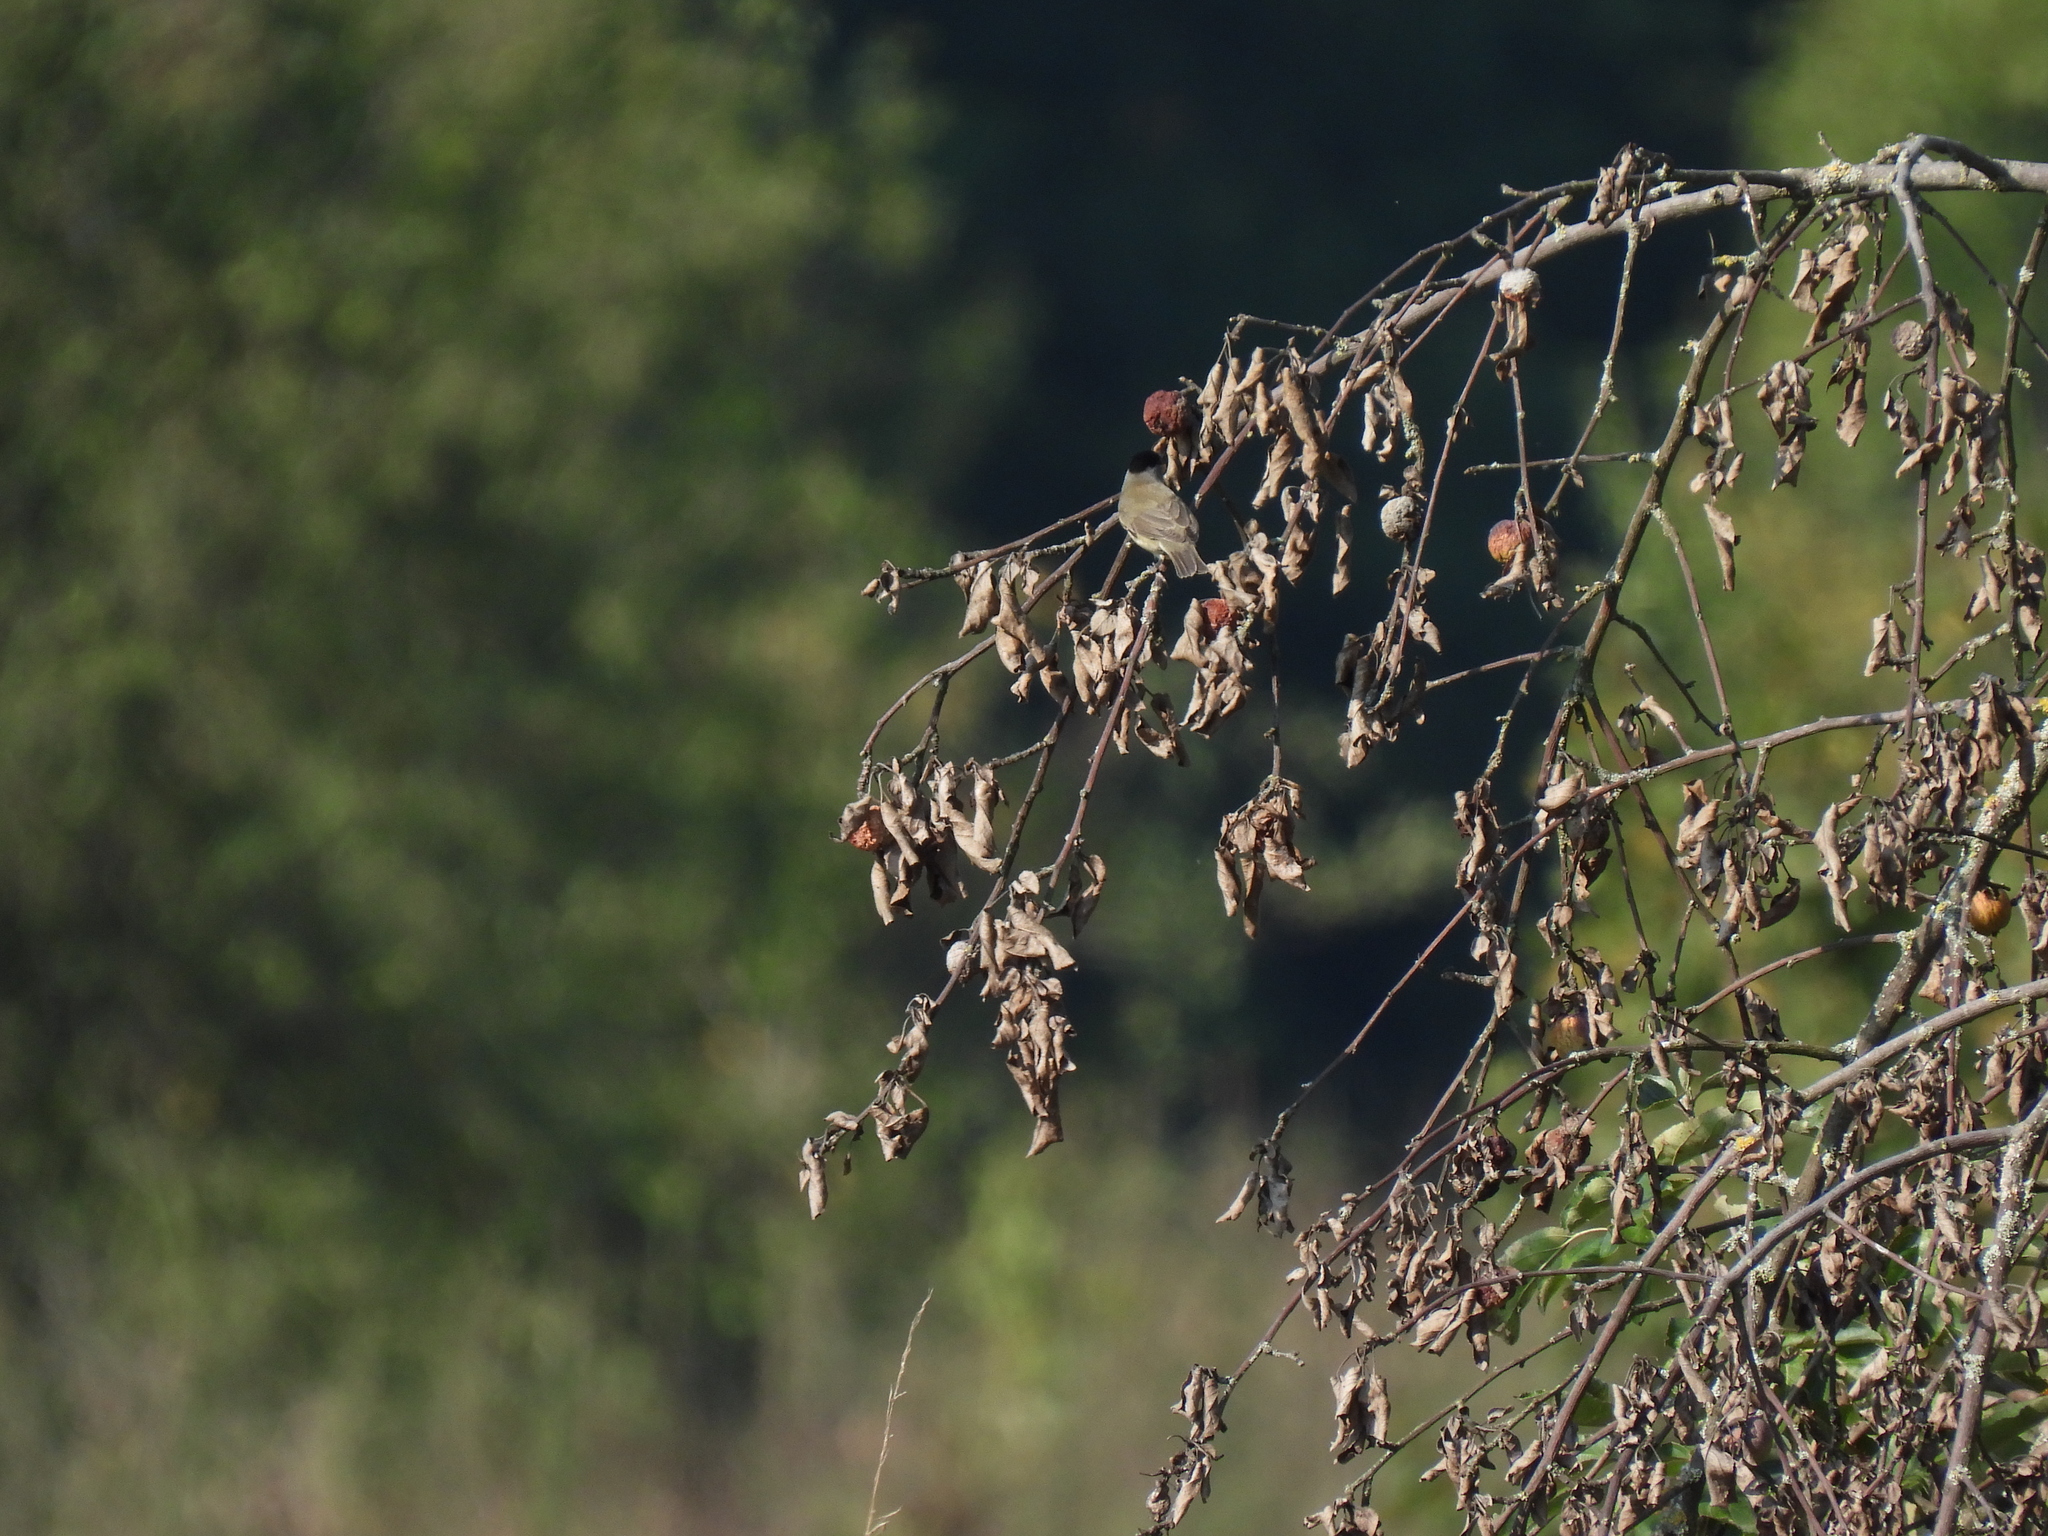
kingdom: Animalia
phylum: Chordata
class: Aves
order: Passeriformes
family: Sylviidae
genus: Sylvia
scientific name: Sylvia atricapilla
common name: Eurasian blackcap
